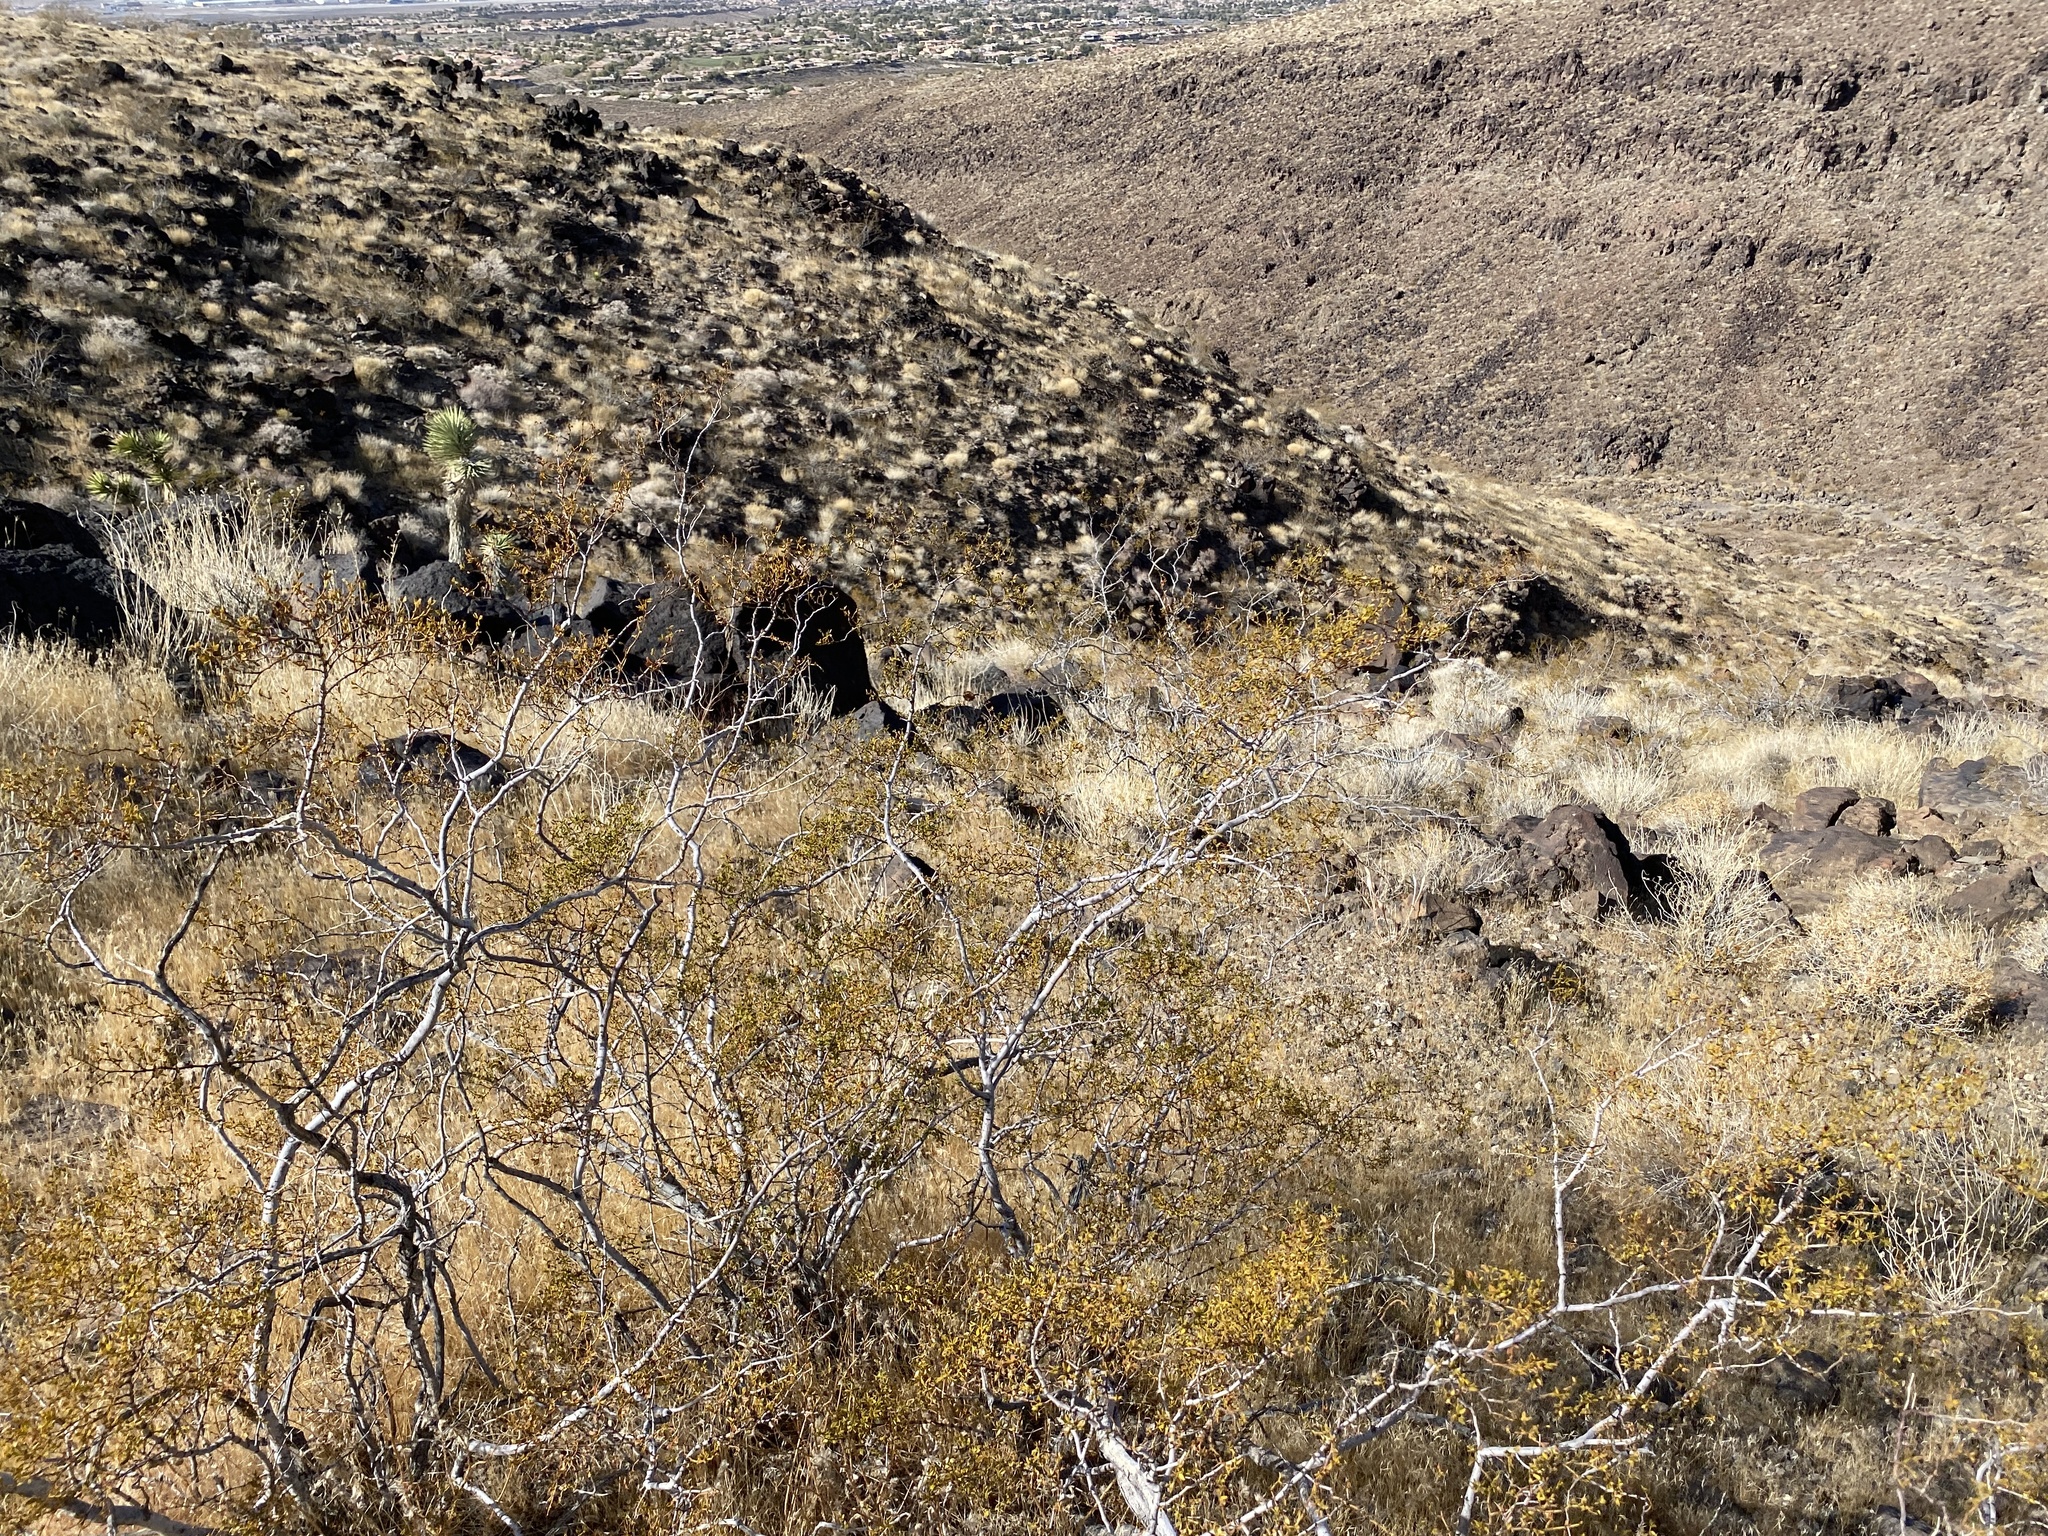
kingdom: Plantae
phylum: Tracheophyta
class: Magnoliopsida
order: Zygophyllales
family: Zygophyllaceae
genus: Larrea
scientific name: Larrea tridentata
